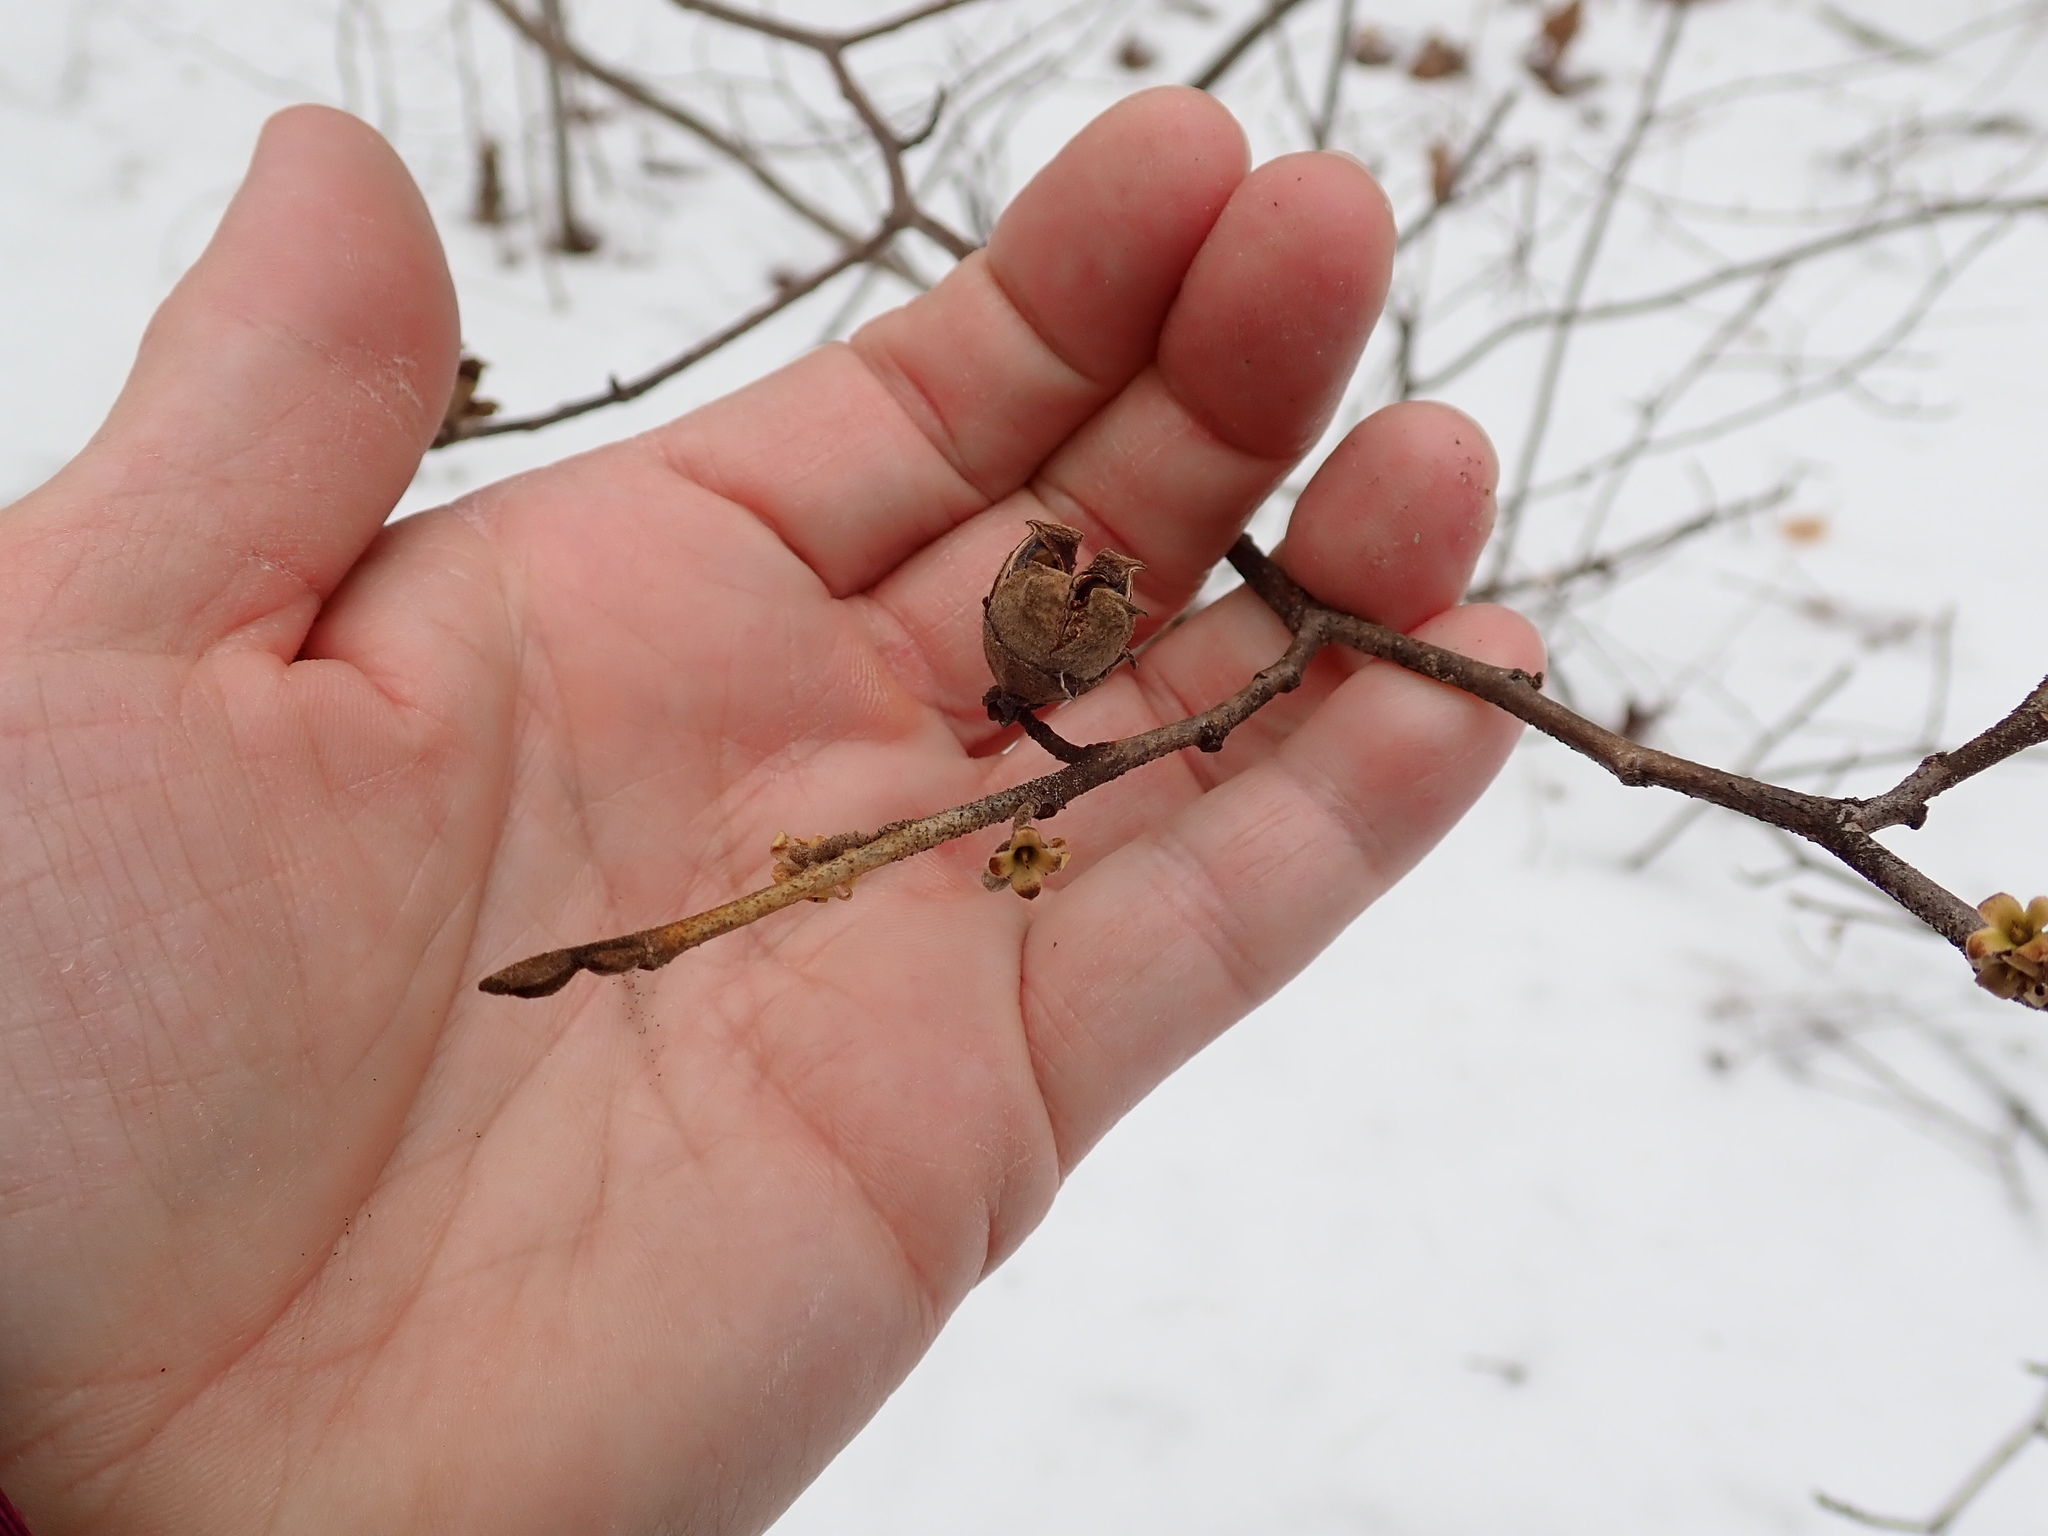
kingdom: Plantae
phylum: Tracheophyta
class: Magnoliopsida
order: Saxifragales
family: Hamamelidaceae
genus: Hamamelis
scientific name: Hamamelis virginiana
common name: Witch-hazel
